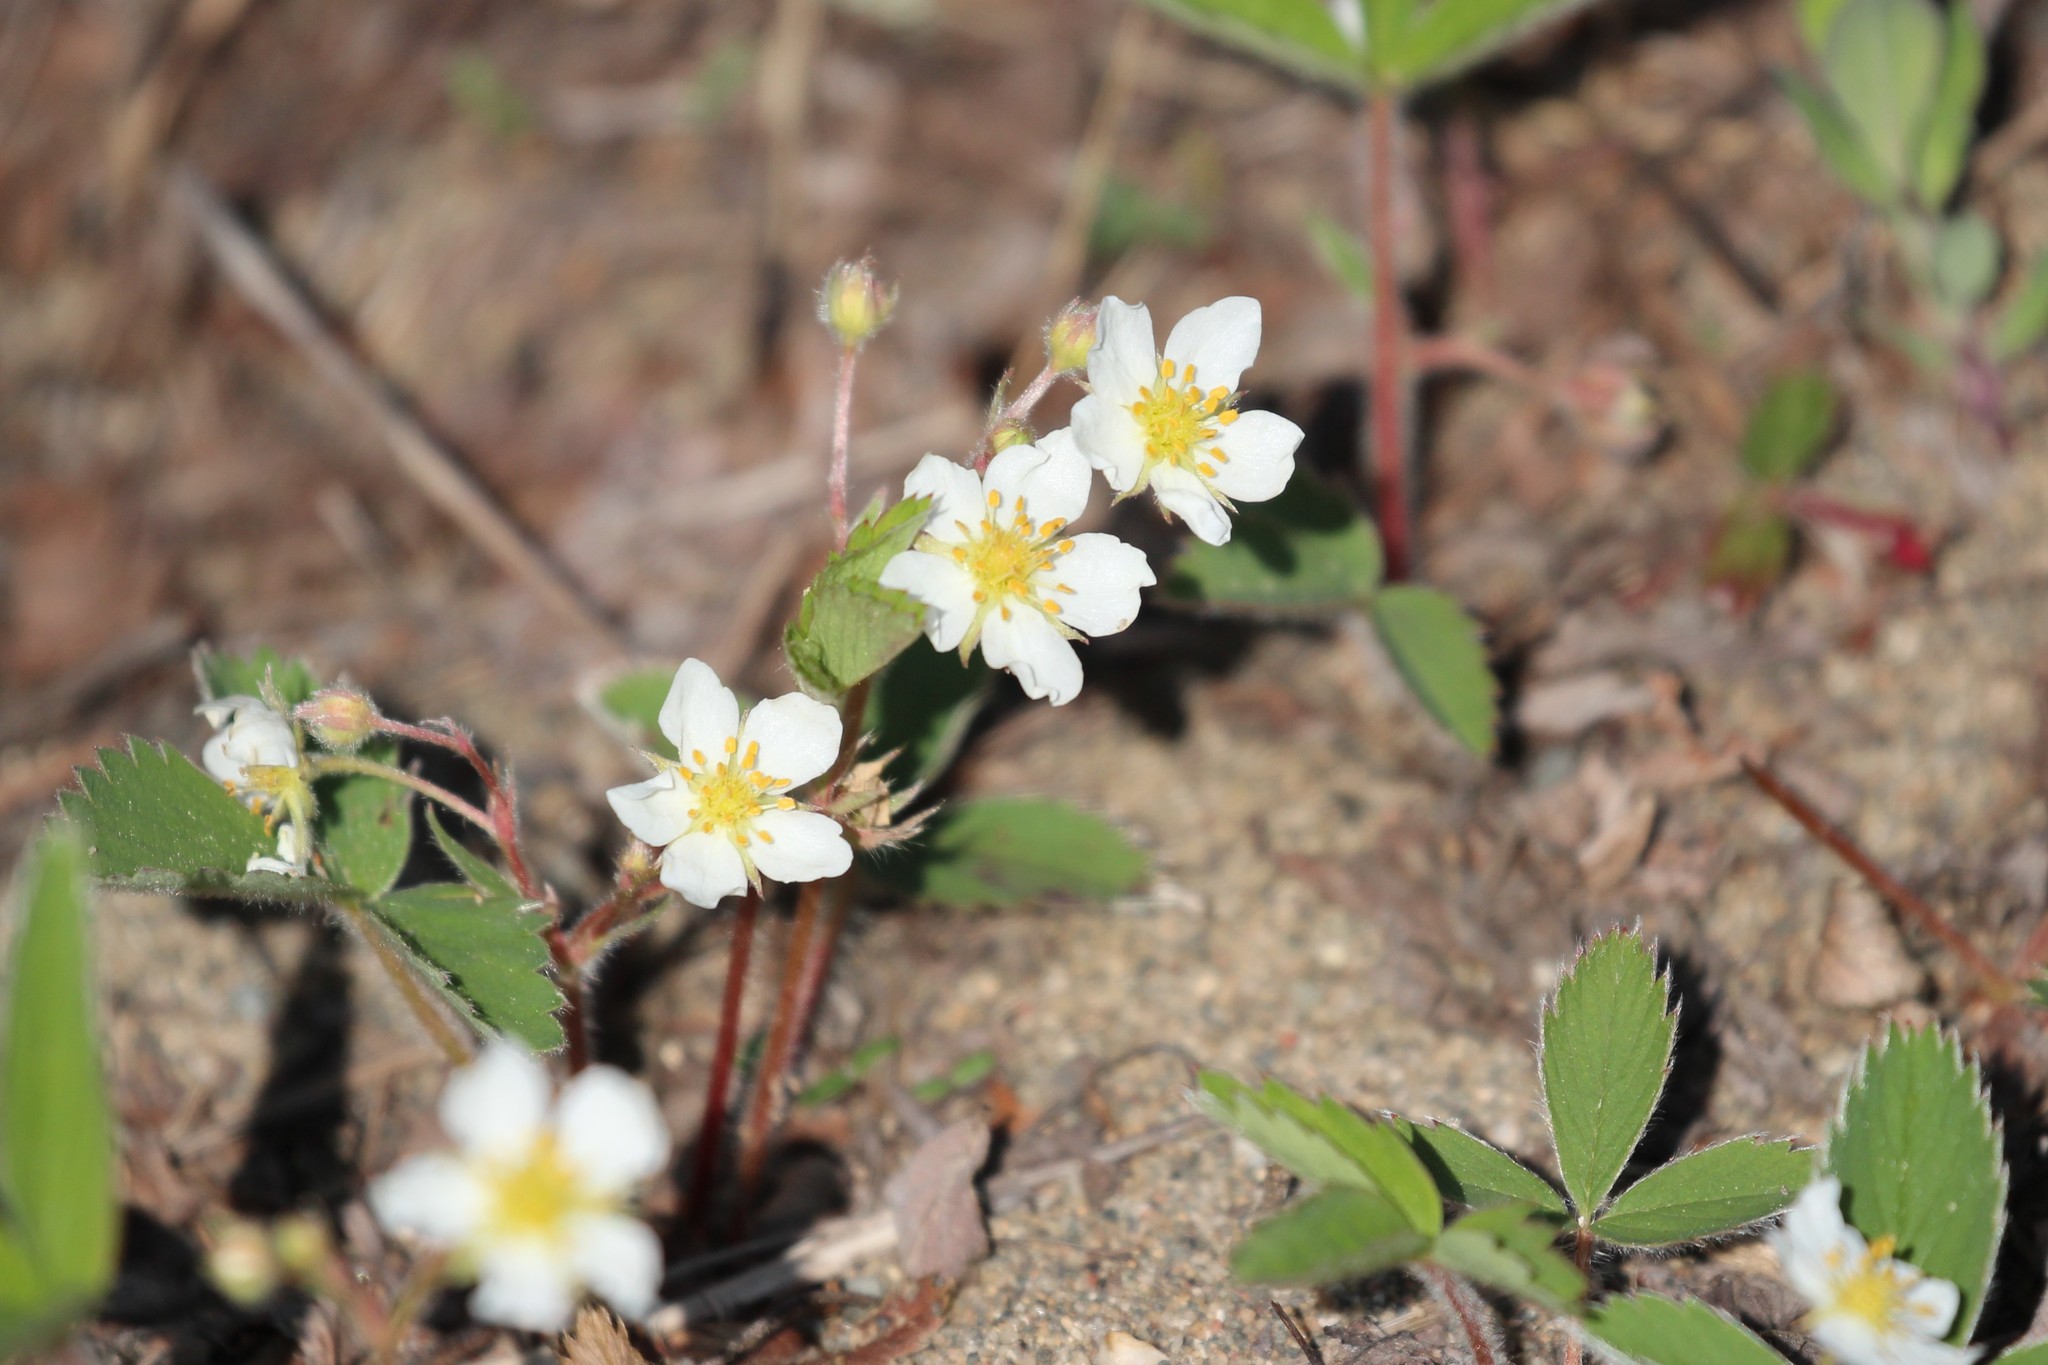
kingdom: Plantae
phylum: Tracheophyta
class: Magnoliopsida
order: Rosales
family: Rosaceae
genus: Fragaria
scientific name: Fragaria virginiana
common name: Thickleaved wild strawberry
